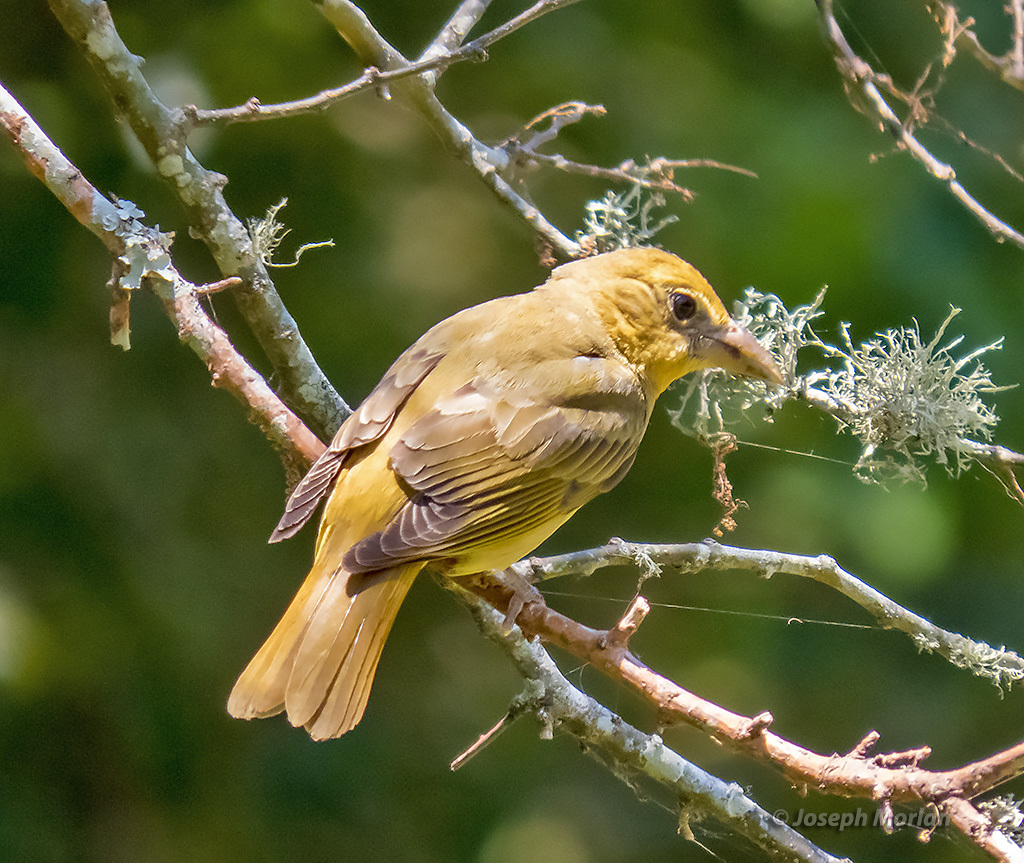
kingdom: Animalia
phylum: Chordata
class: Aves
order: Passeriformes
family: Cardinalidae
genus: Piranga
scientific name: Piranga rubra
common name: Summer tanager
